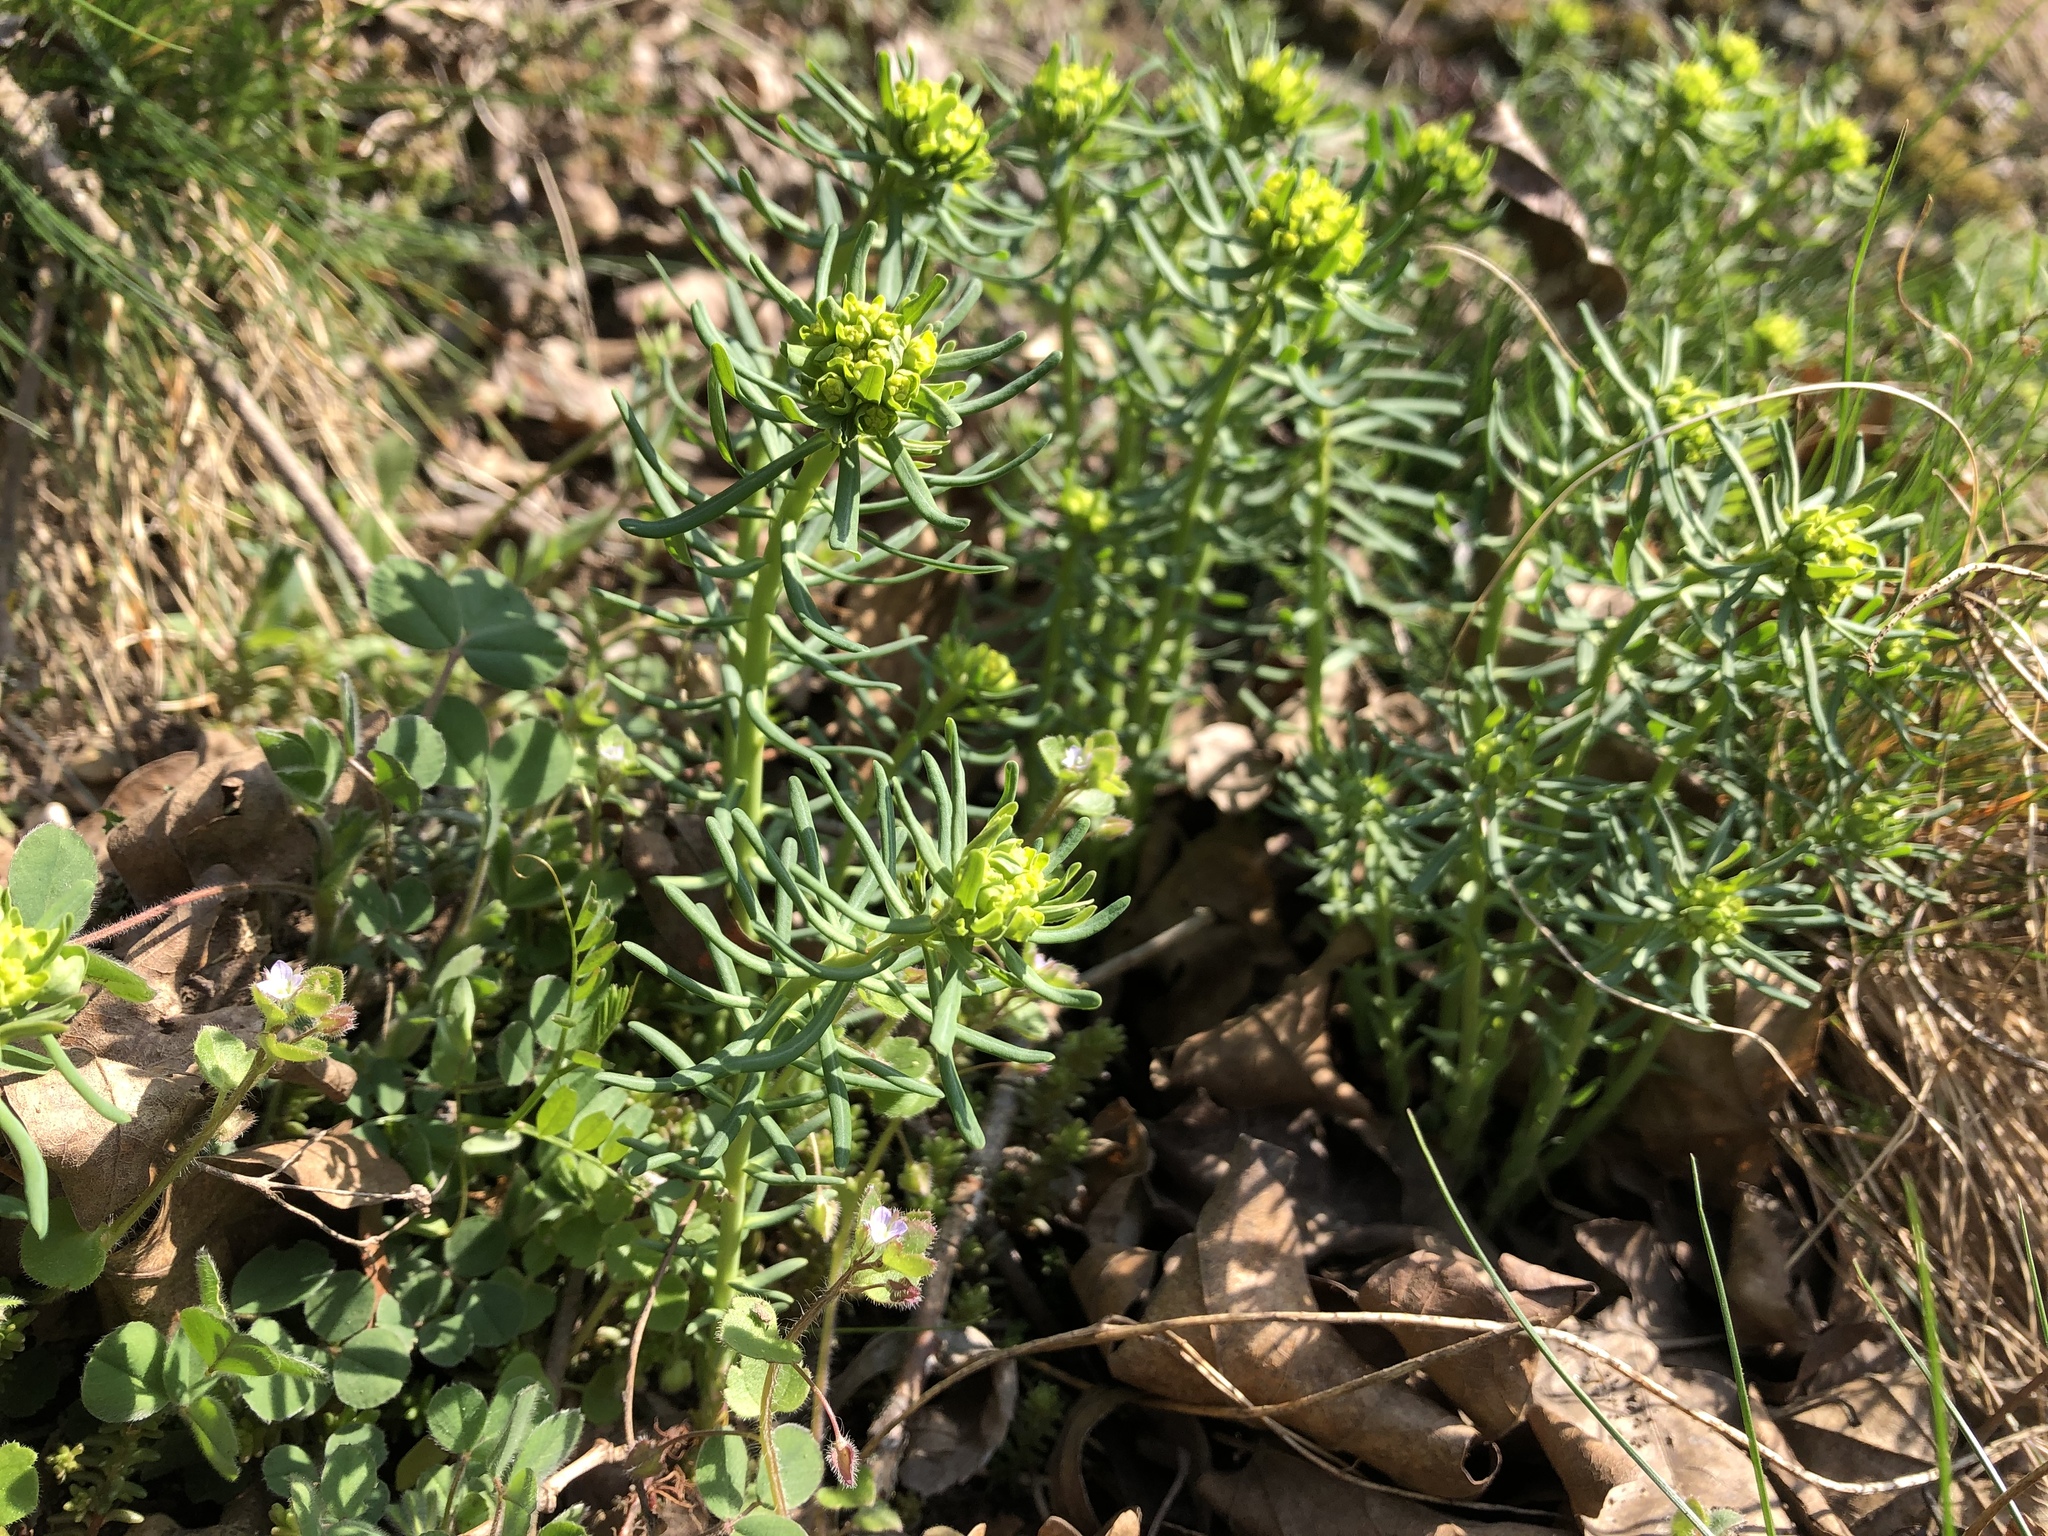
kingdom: Plantae
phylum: Tracheophyta
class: Magnoliopsida
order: Malpighiales
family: Euphorbiaceae
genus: Euphorbia
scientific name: Euphorbia cyparissias
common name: Cypress spurge
